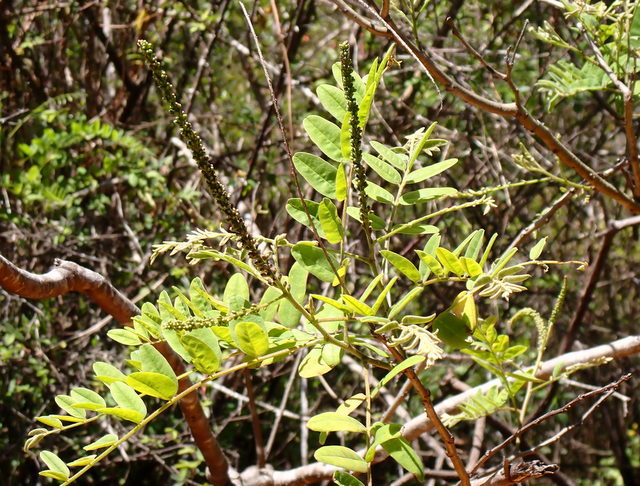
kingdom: Plantae
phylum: Tracheophyta
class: Magnoliopsida
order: Fabales
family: Fabaceae
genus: Amorpha
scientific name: Amorpha fruticosa
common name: False indigo
